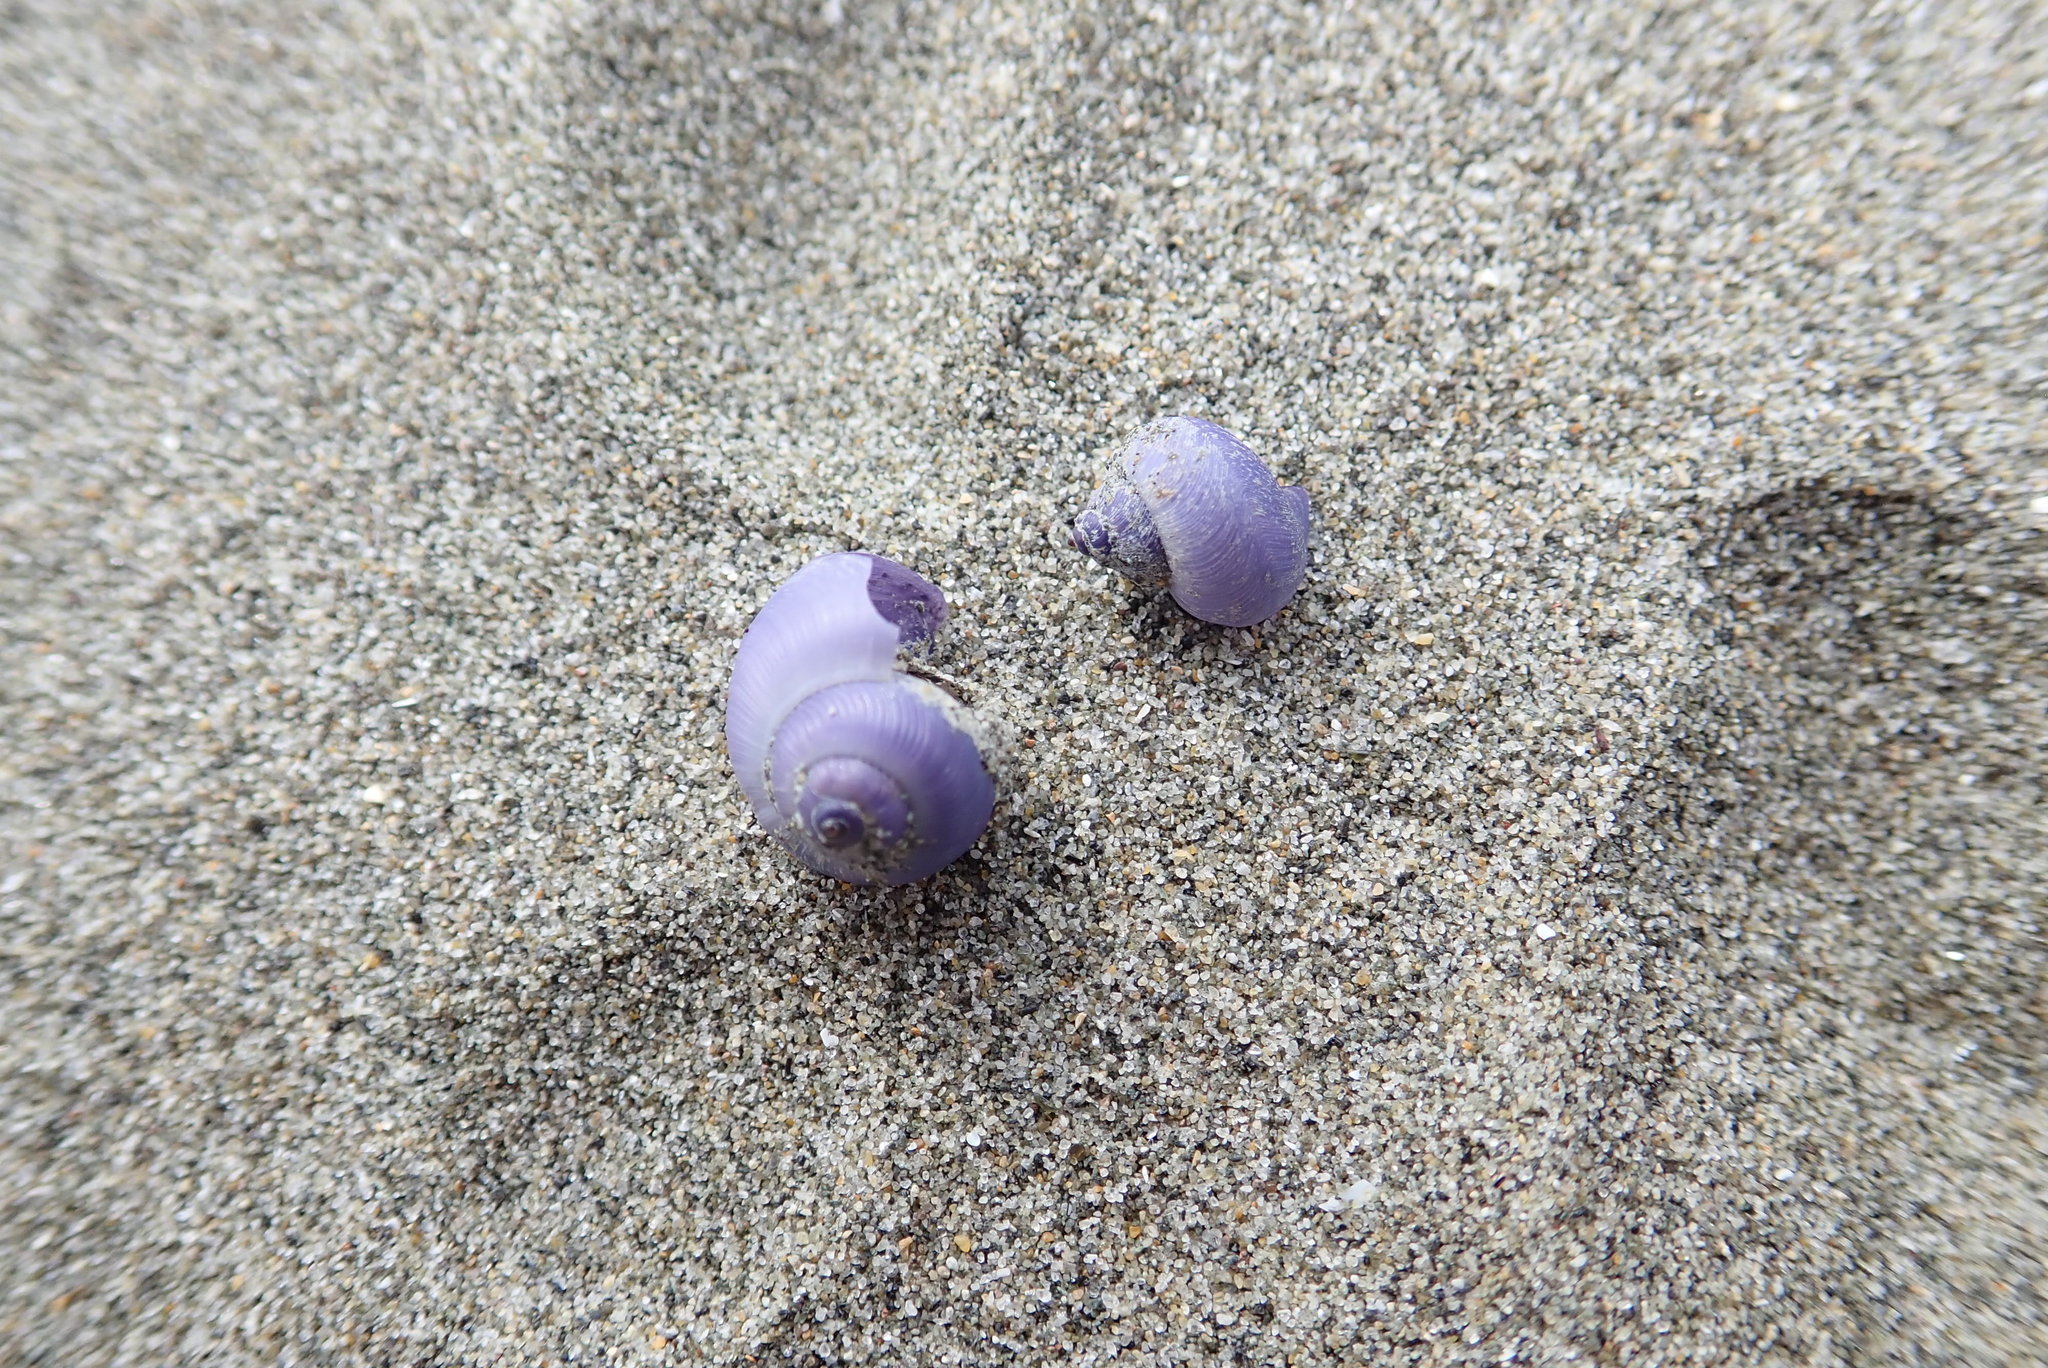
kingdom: Animalia
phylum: Mollusca
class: Gastropoda
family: Epitoniidae
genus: Janthina
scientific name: Janthina exigua
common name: Dwarf janthina
